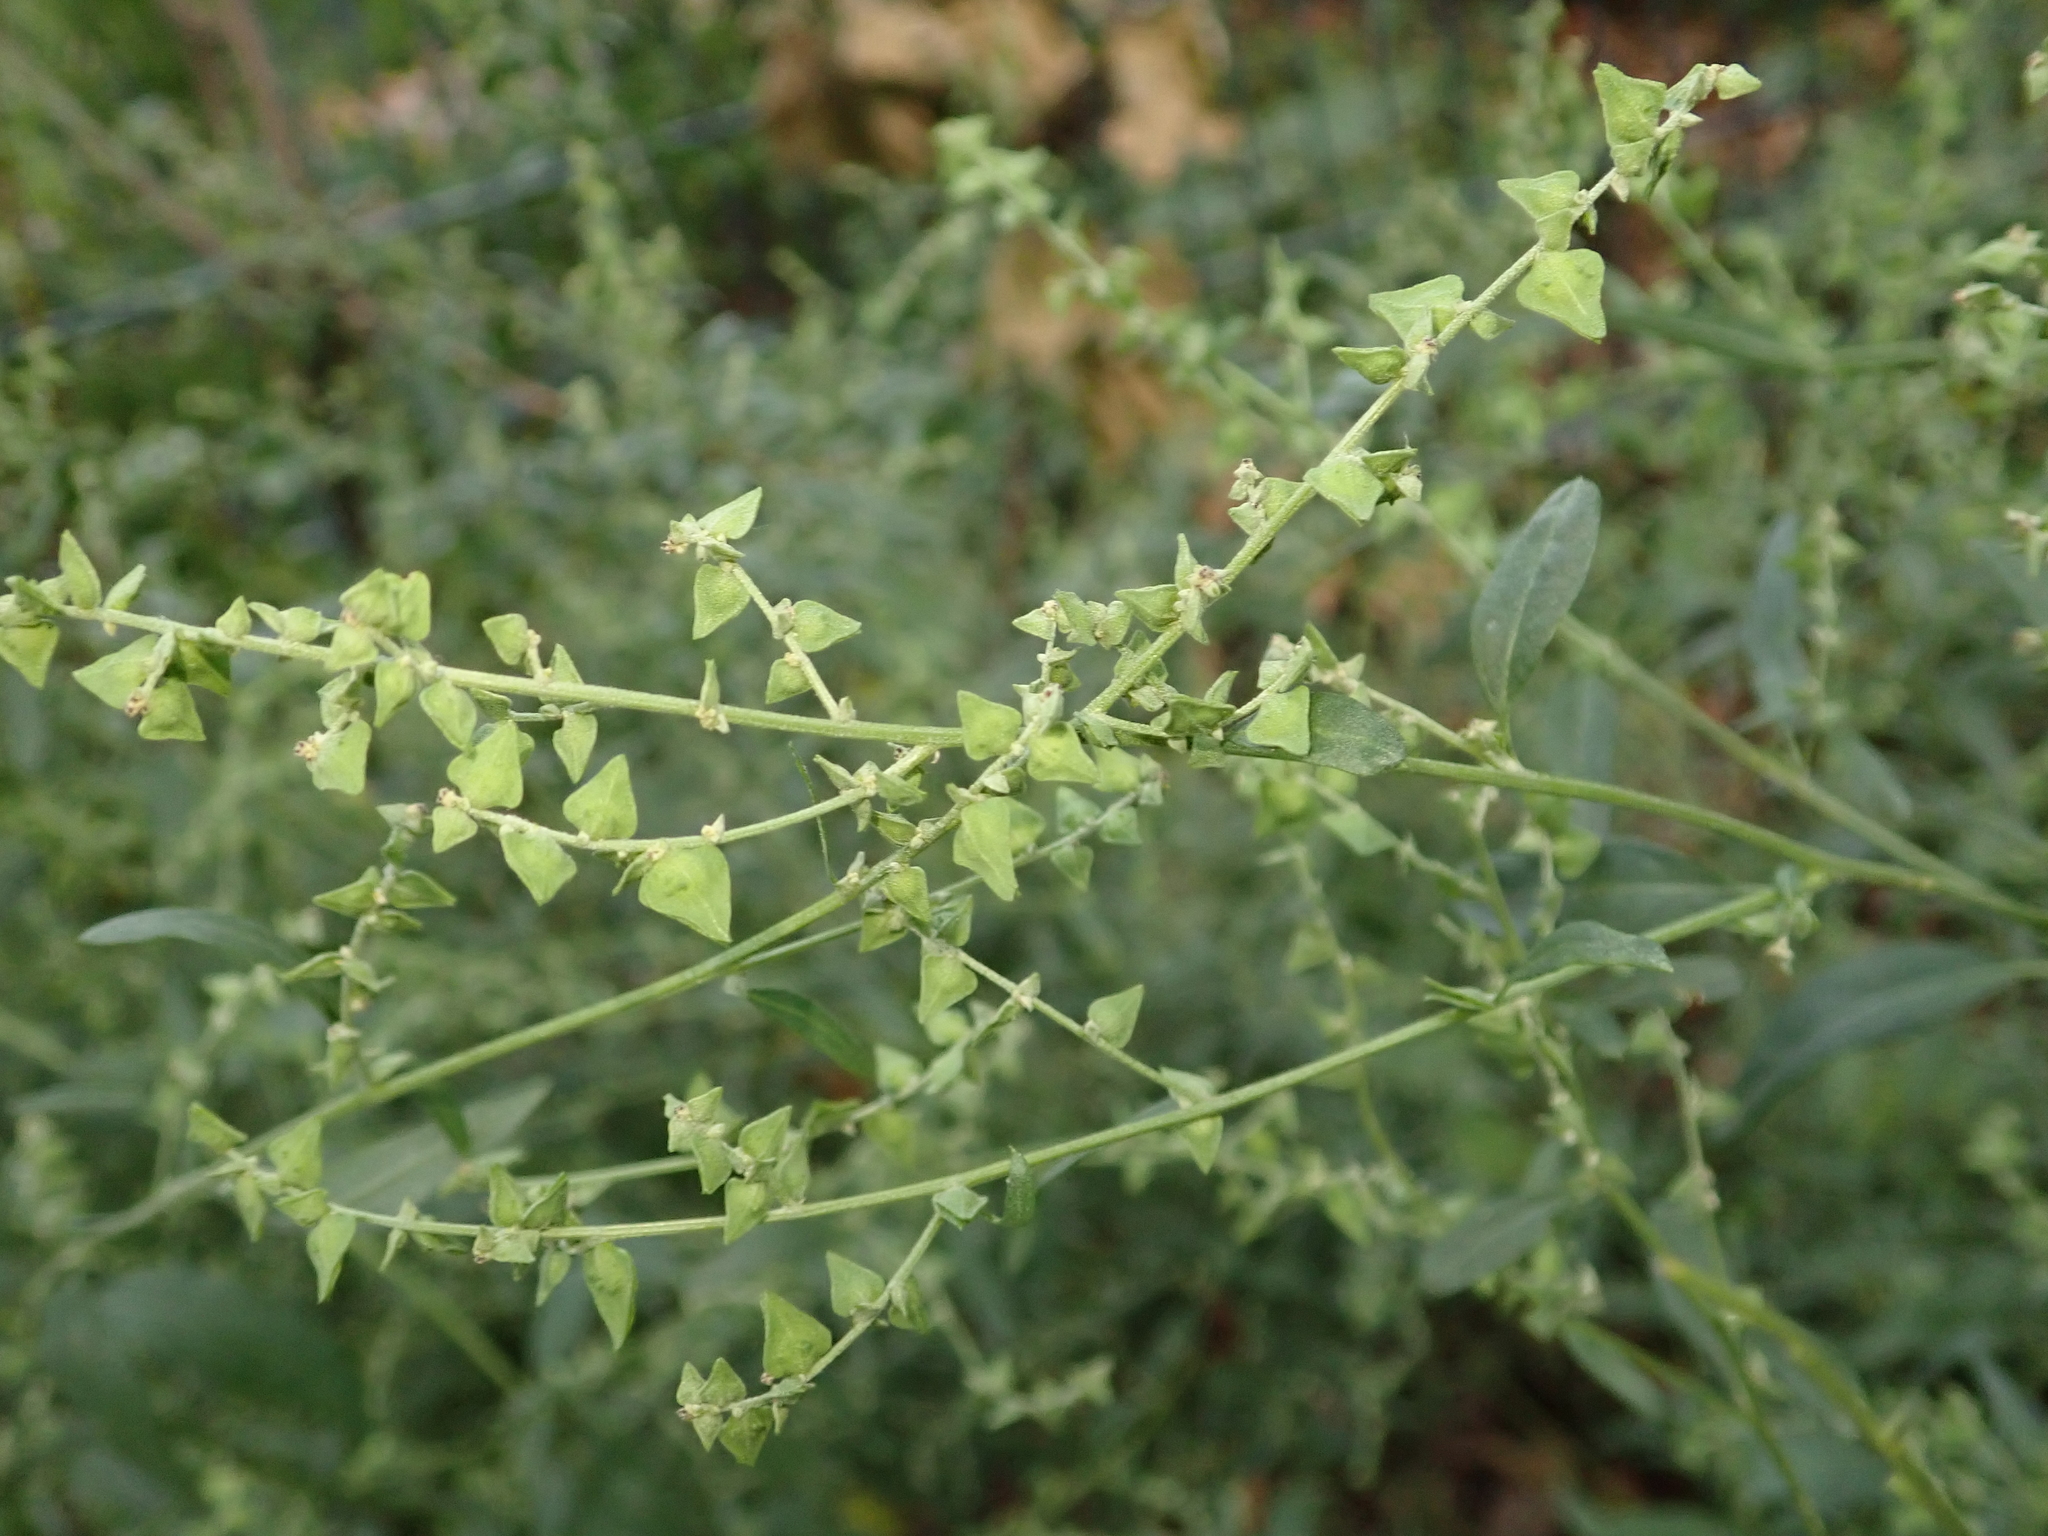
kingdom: Plantae
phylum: Tracheophyta
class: Magnoliopsida
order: Caryophyllales
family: Amaranthaceae
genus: Atriplex
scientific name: Atriplex patula
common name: Common orache
